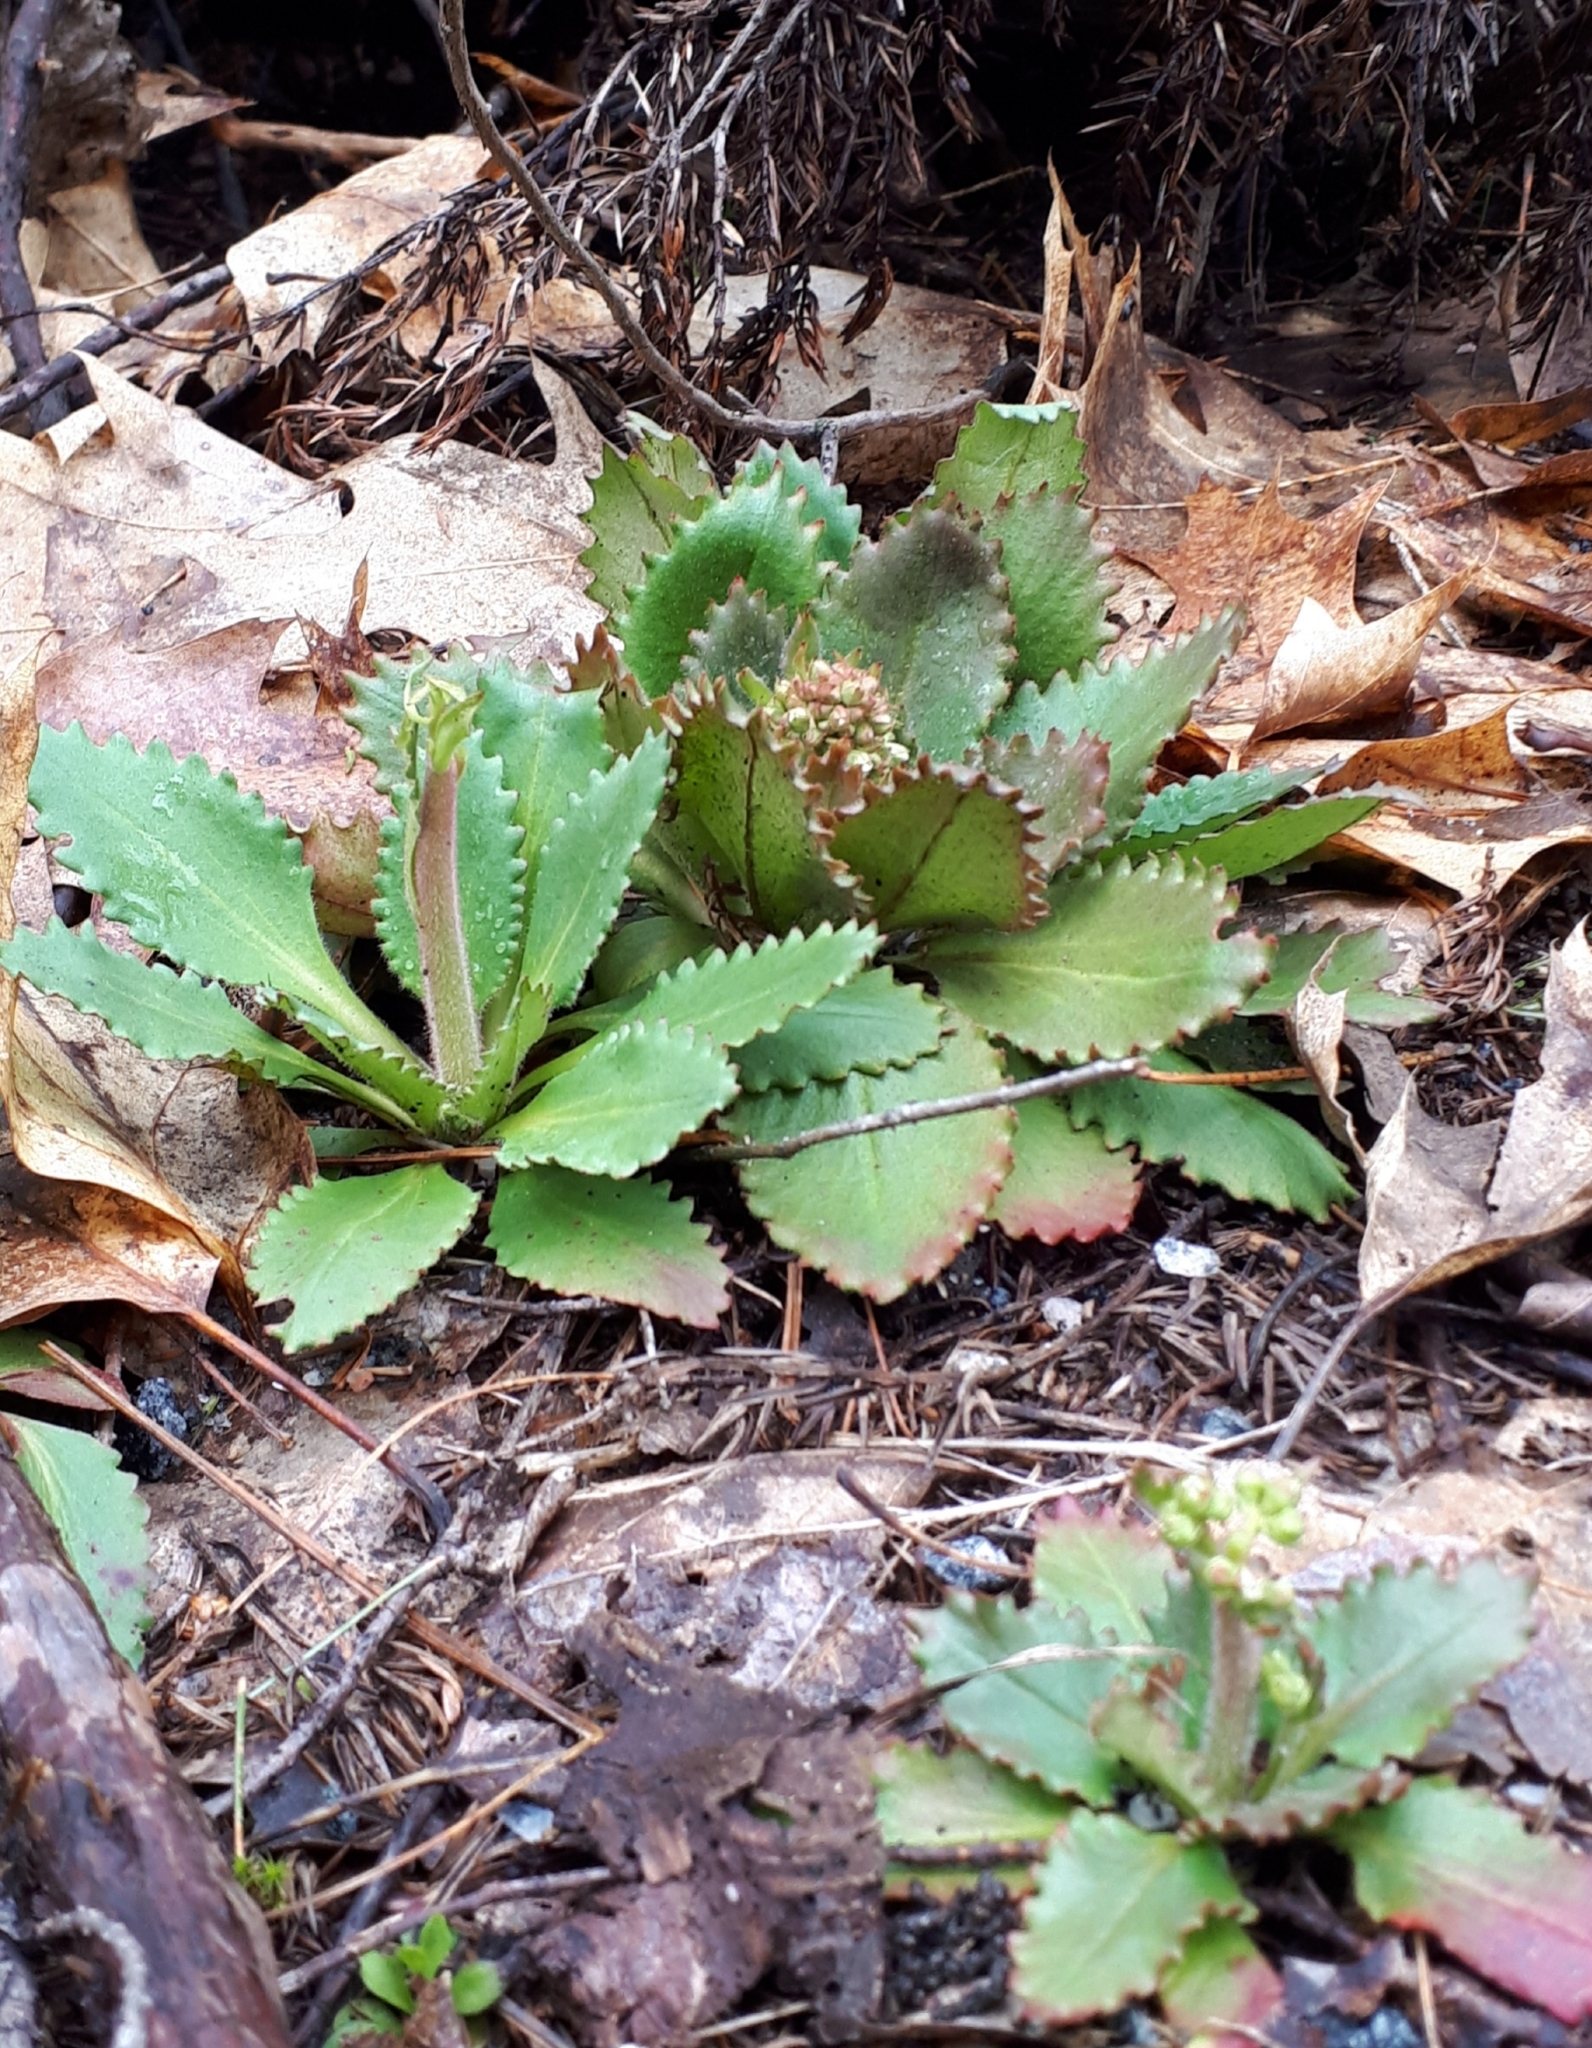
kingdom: Plantae
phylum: Tracheophyta
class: Magnoliopsida
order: Saxifragales
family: Saxifragaceae
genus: Micranthes
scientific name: Micranthes virginiensis
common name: Early saxifrage
